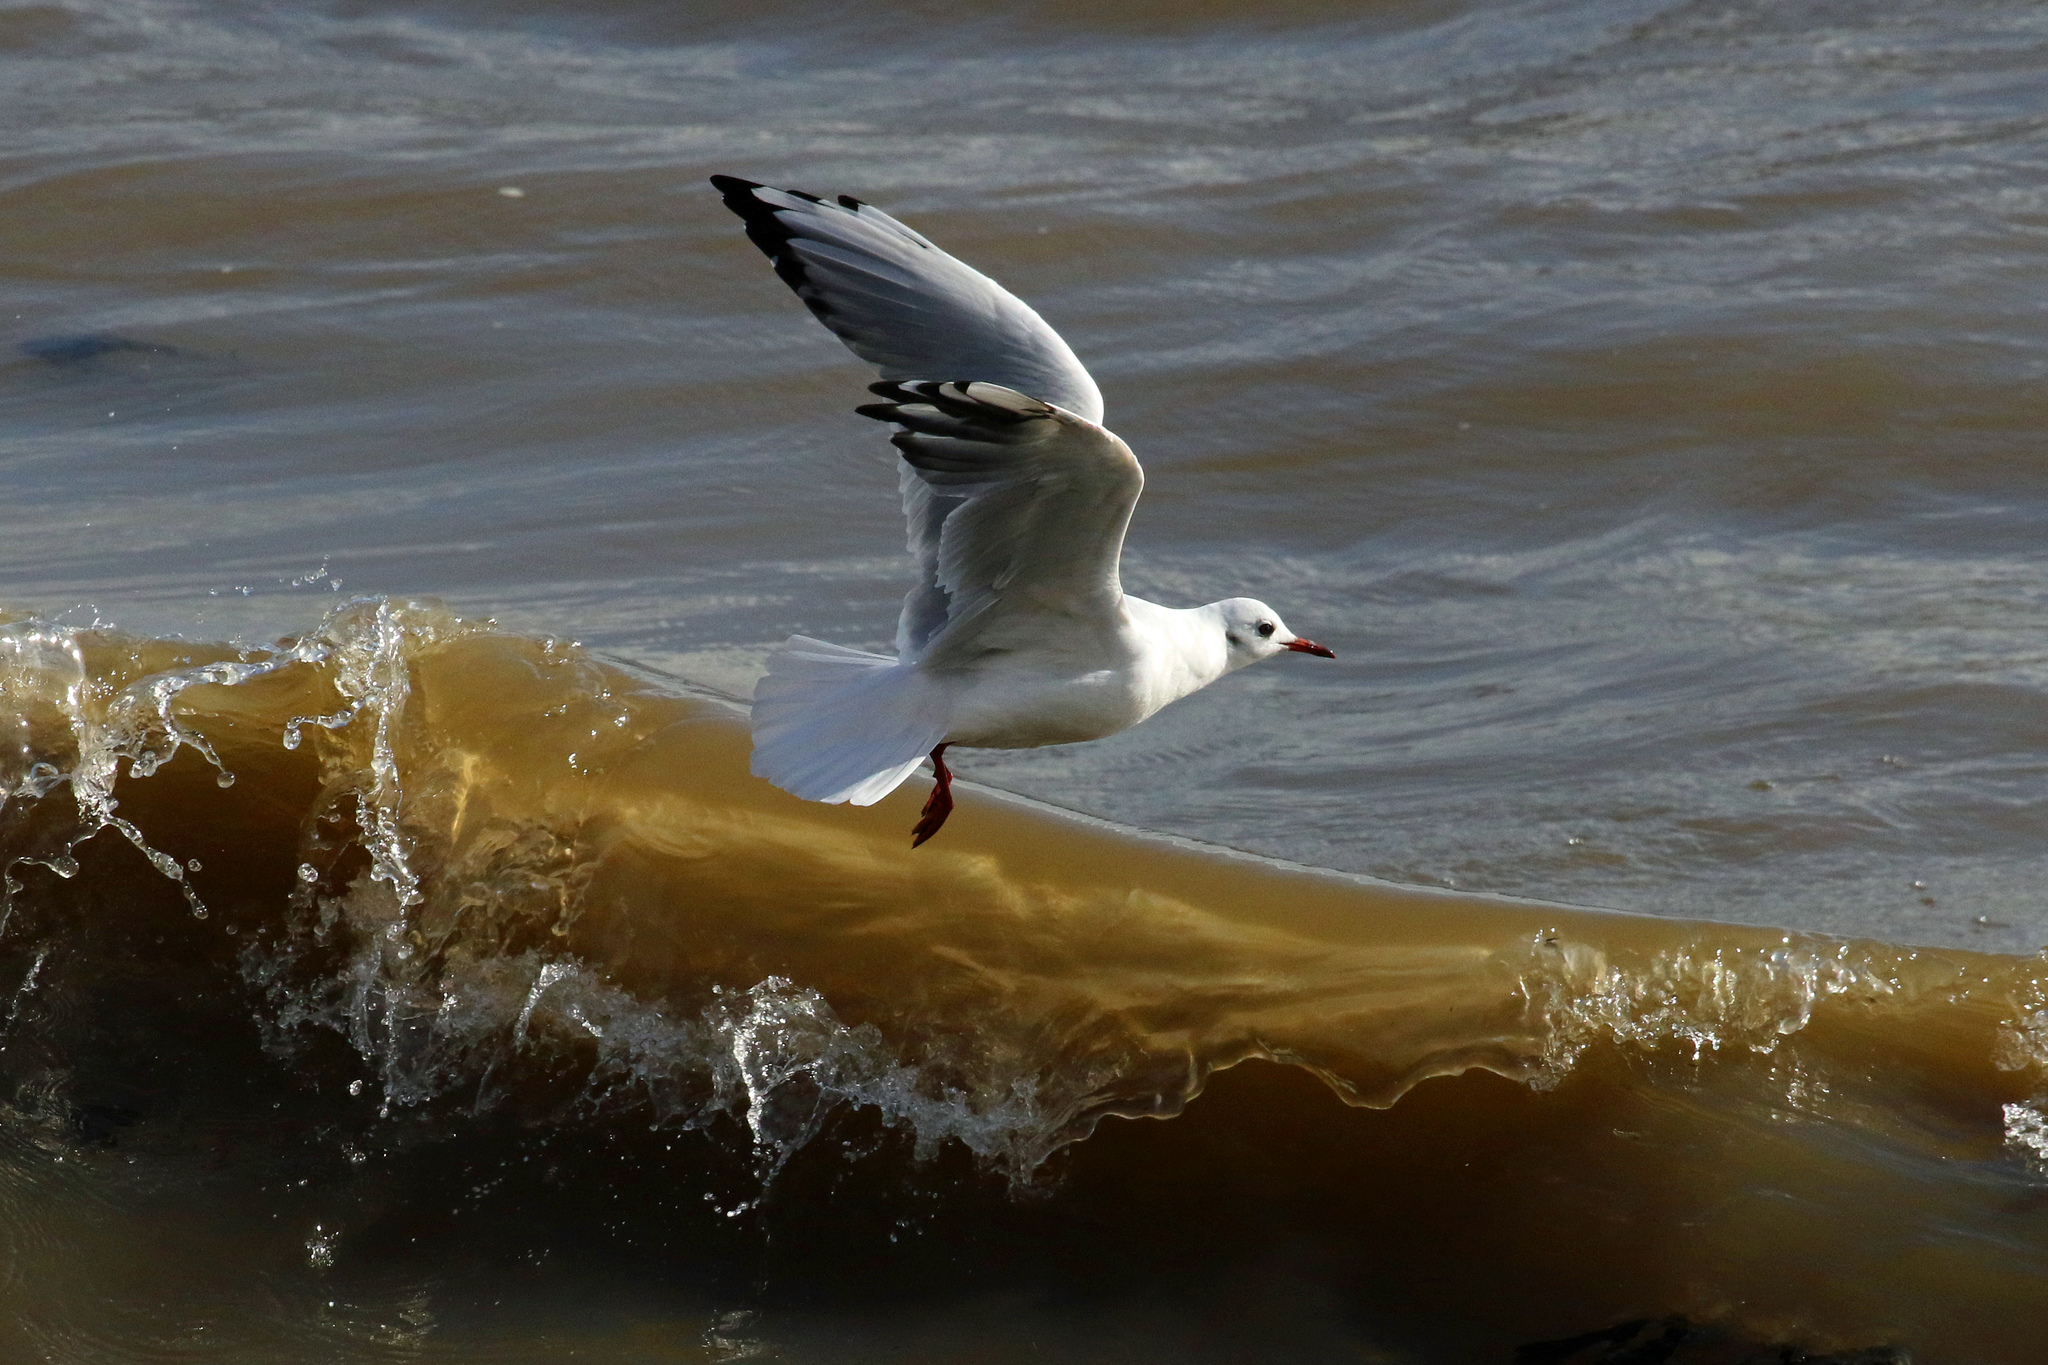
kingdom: Animalia
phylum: Chordata
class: Aves
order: Charadriiformes
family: Laridae
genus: Chroicocephalus
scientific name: Chroicocephalus ridibundus
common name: Black-headed gull
